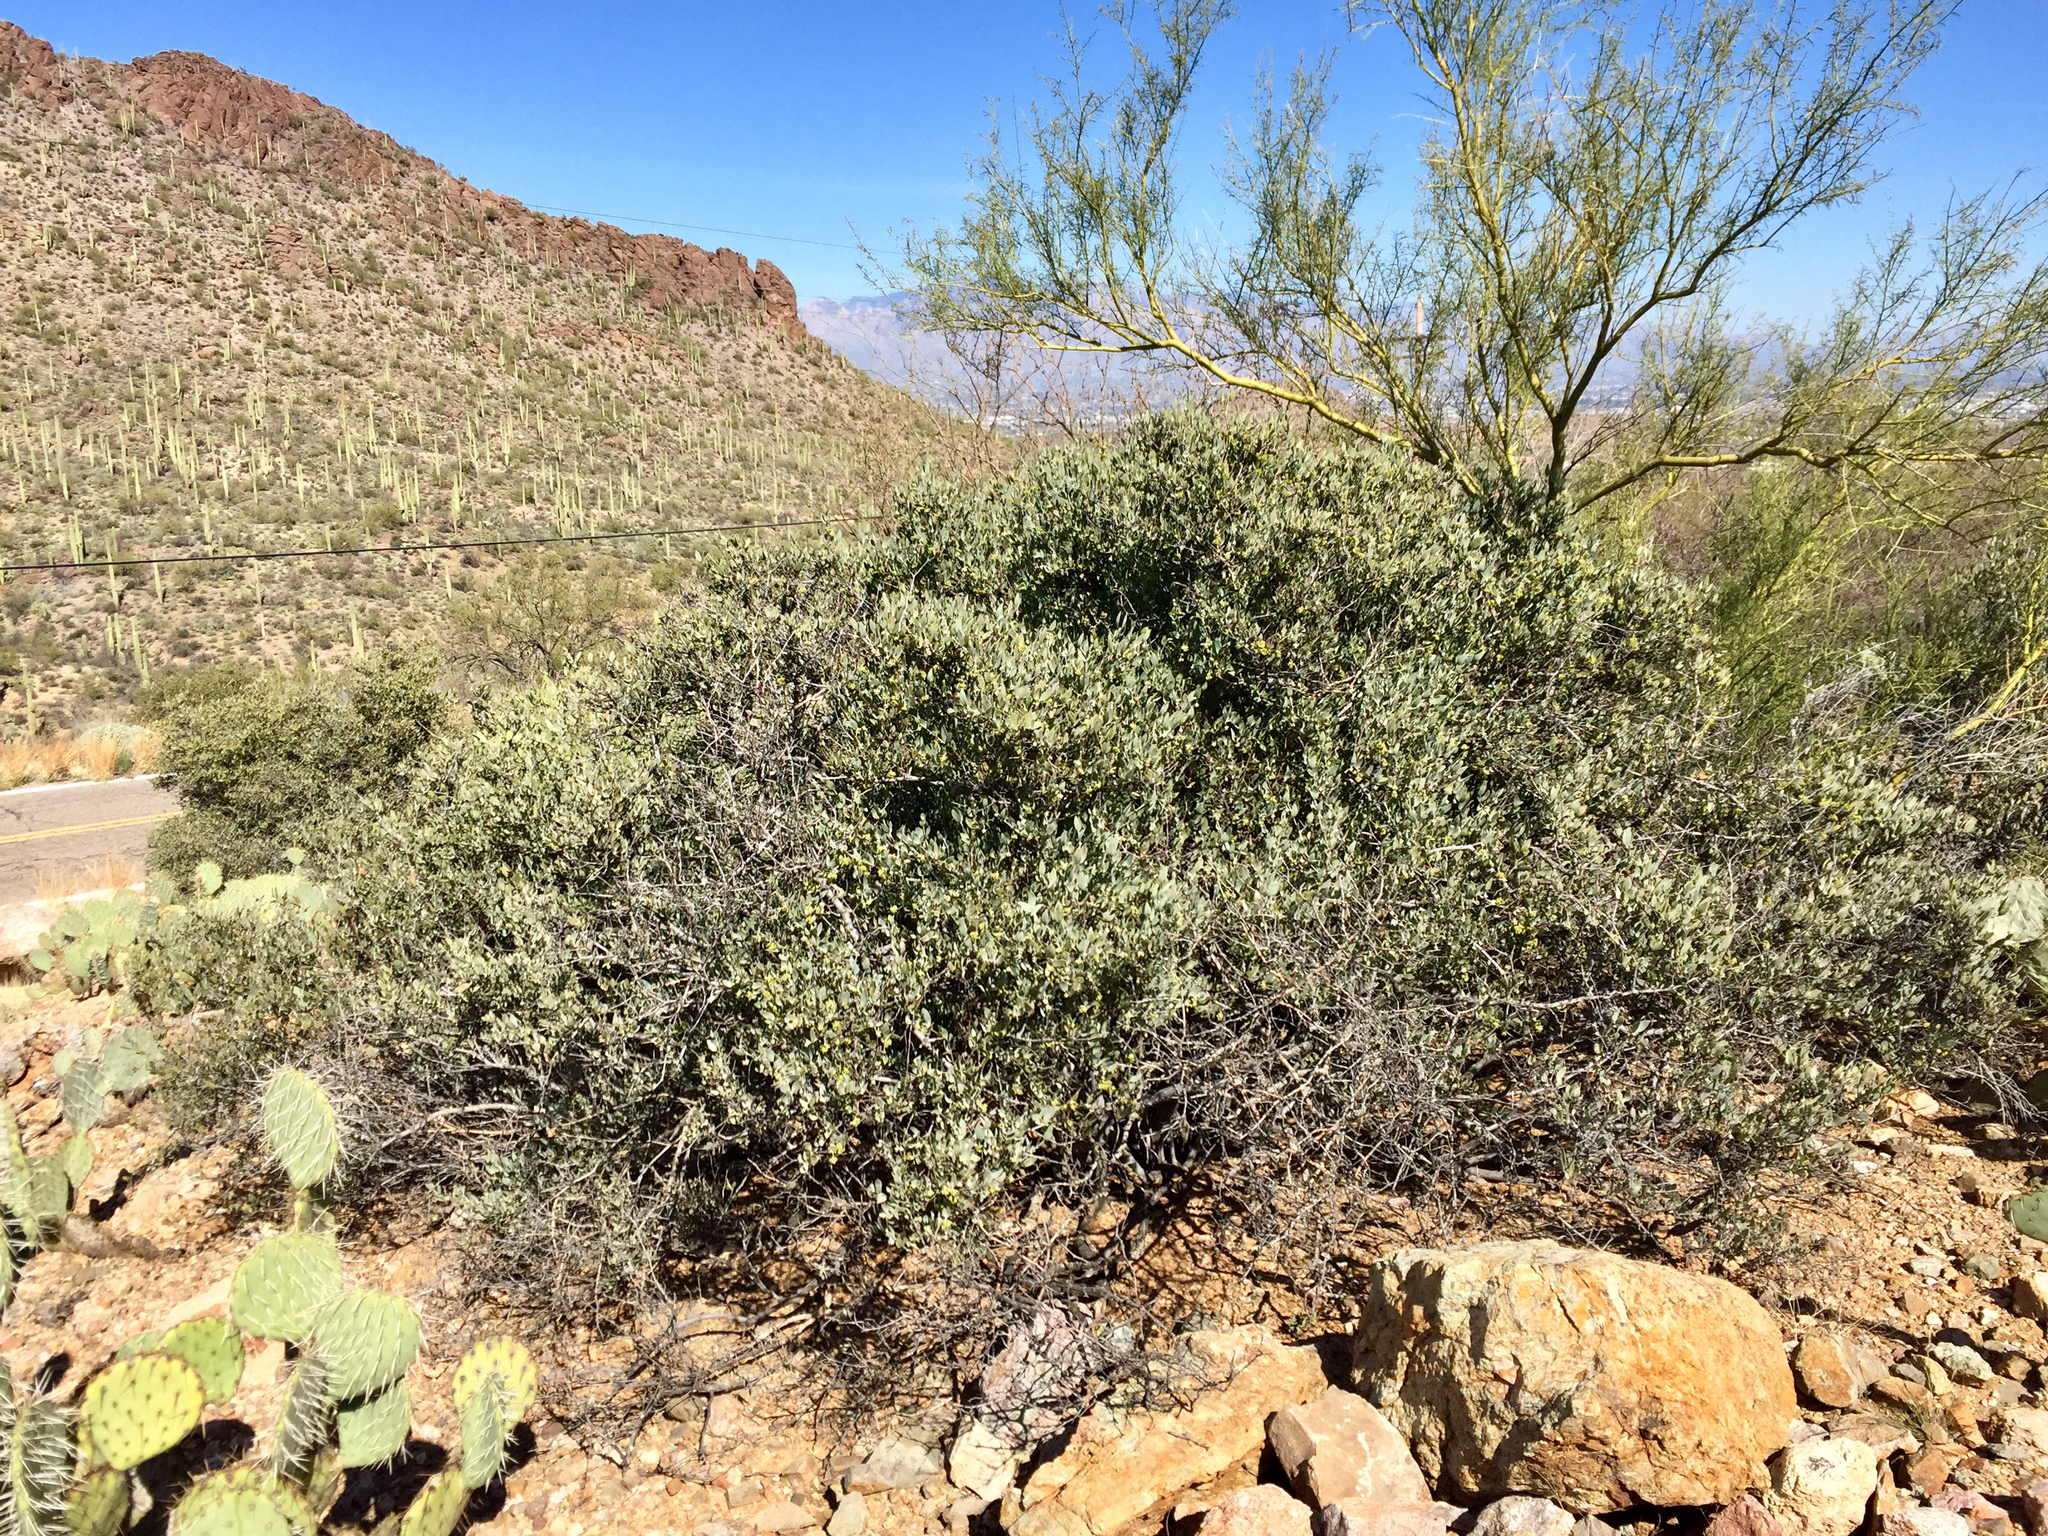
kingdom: Plantae
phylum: Tracheophyta
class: Magnoliopsida
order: Caryophyllales
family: Simmondsiaceae
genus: Simmondsia
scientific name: Simmondsia chinensis
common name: Jojoba
